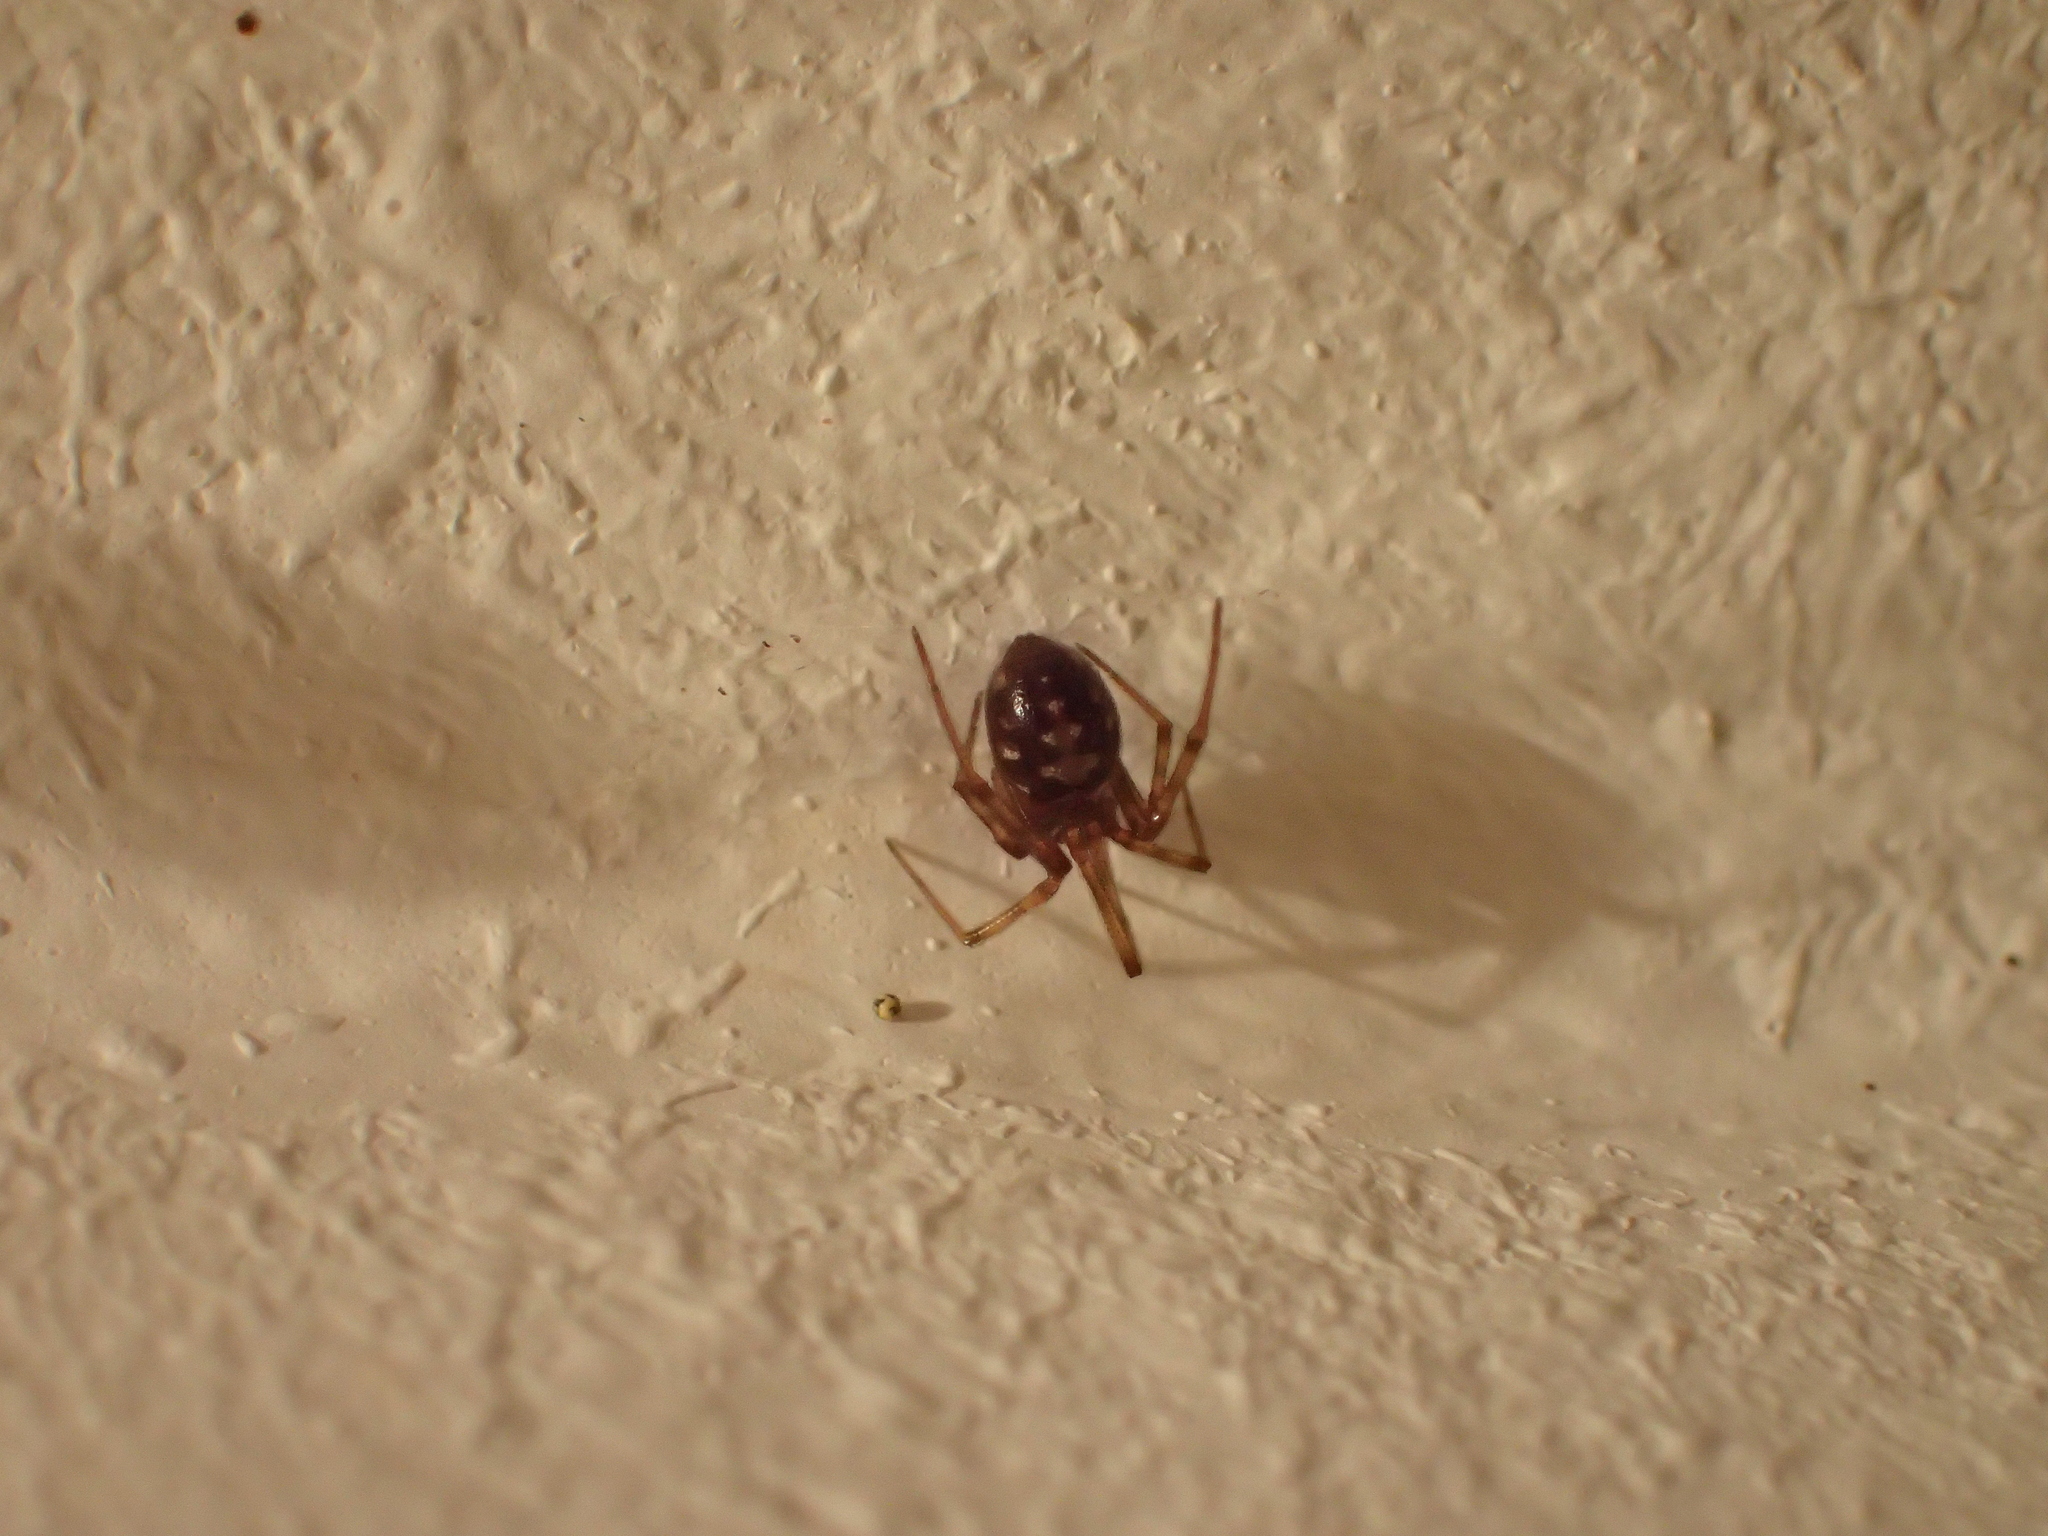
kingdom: Animalia
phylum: Arthropoda
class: Arachnida
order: Araneae
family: Theridiidae
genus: Steatoda
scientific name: Steatoda triangulosa
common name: Triangulate bud spider
